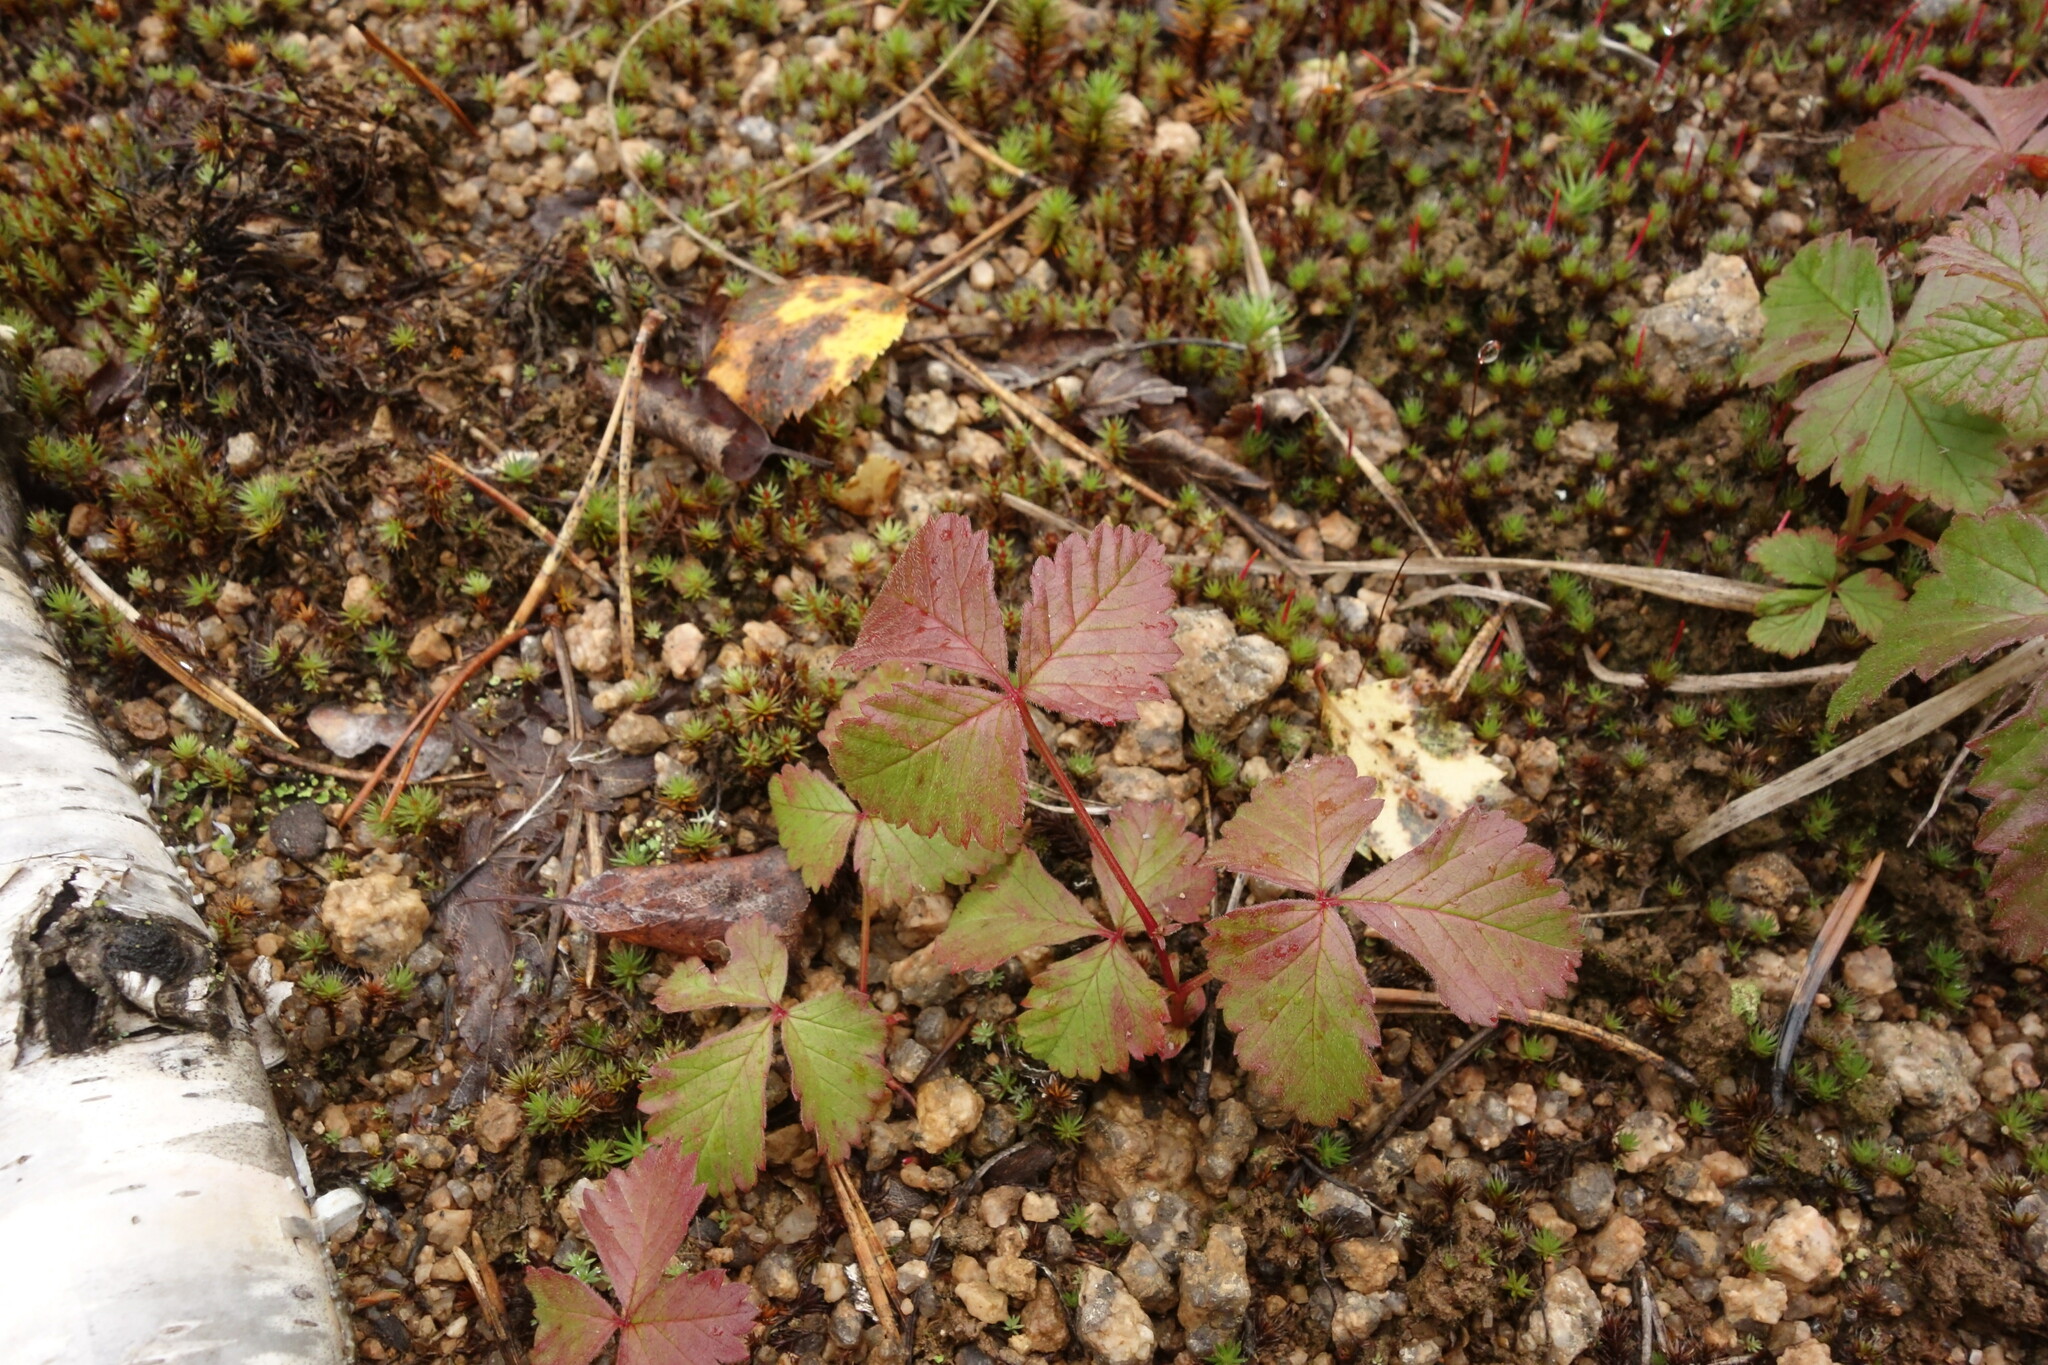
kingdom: Plantae
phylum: Tracheophyta
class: Magnoliopsida
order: Rosales
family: Rosaceae
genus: Rubus
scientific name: Rubus arcticus
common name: Arctic bramble
